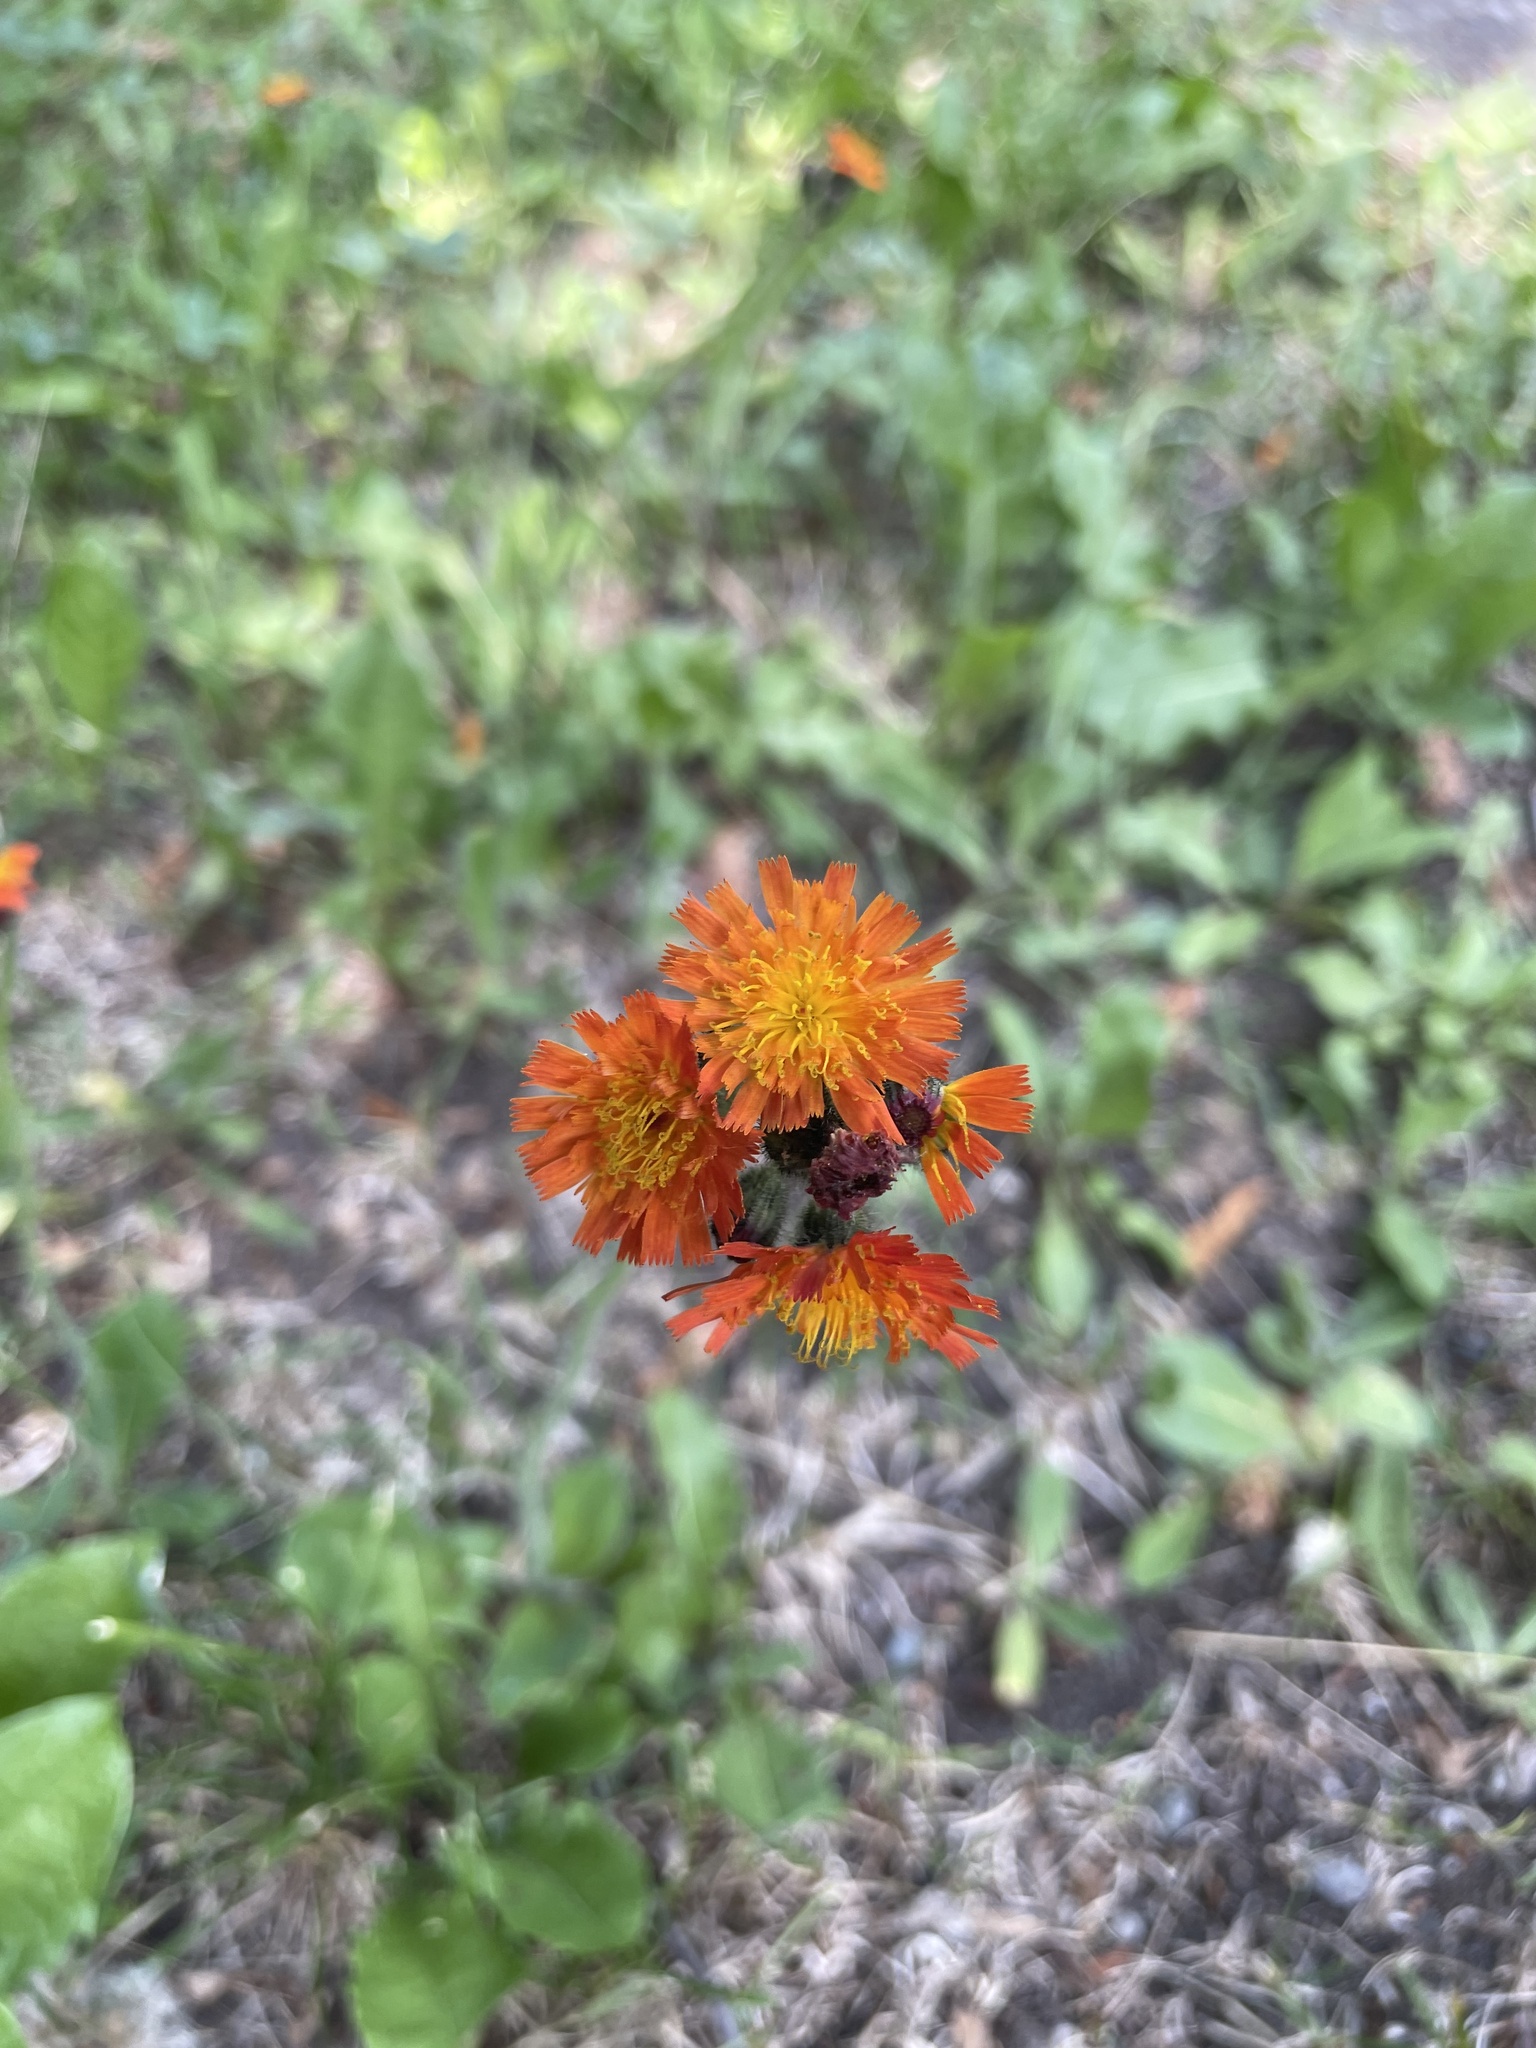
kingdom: Plantae
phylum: Tracheophyta
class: Magnoliopsida
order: Asterales
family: Asteraceae
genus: Pilosella
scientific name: Pilosella aurantiaca
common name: Fox-and-cubs
